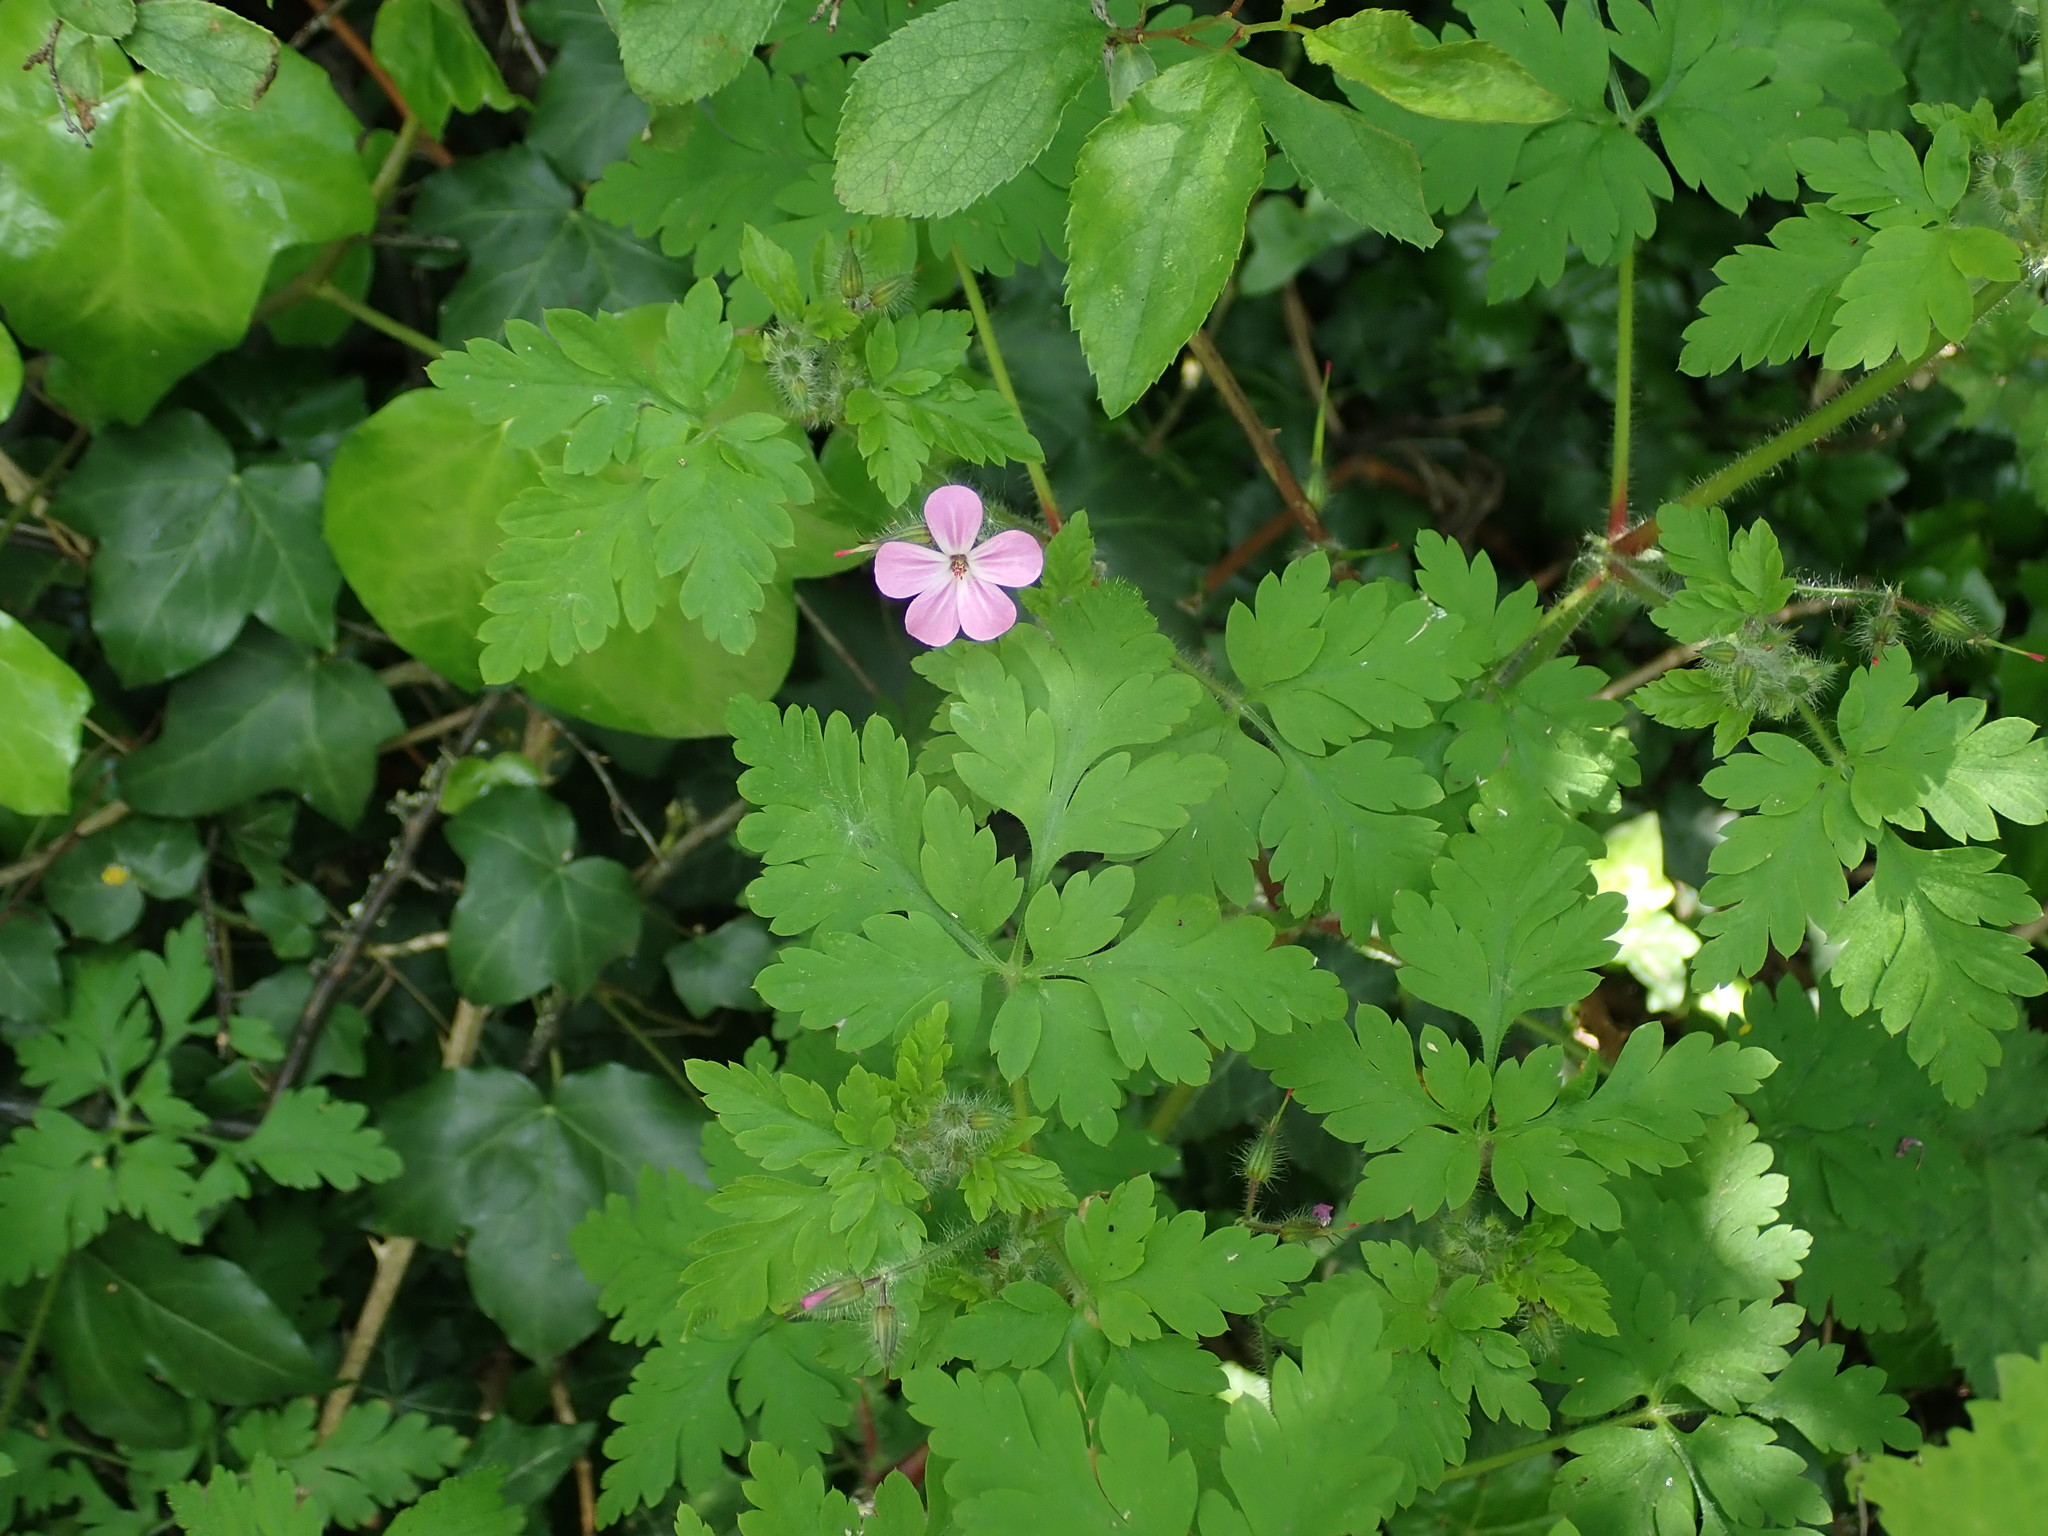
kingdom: Plantae
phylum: Tracheophyta
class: Magnoliopsida
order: Geraniales
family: Geraniaceae
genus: Geranium
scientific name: Geranium robertianum
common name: Herb-robert
